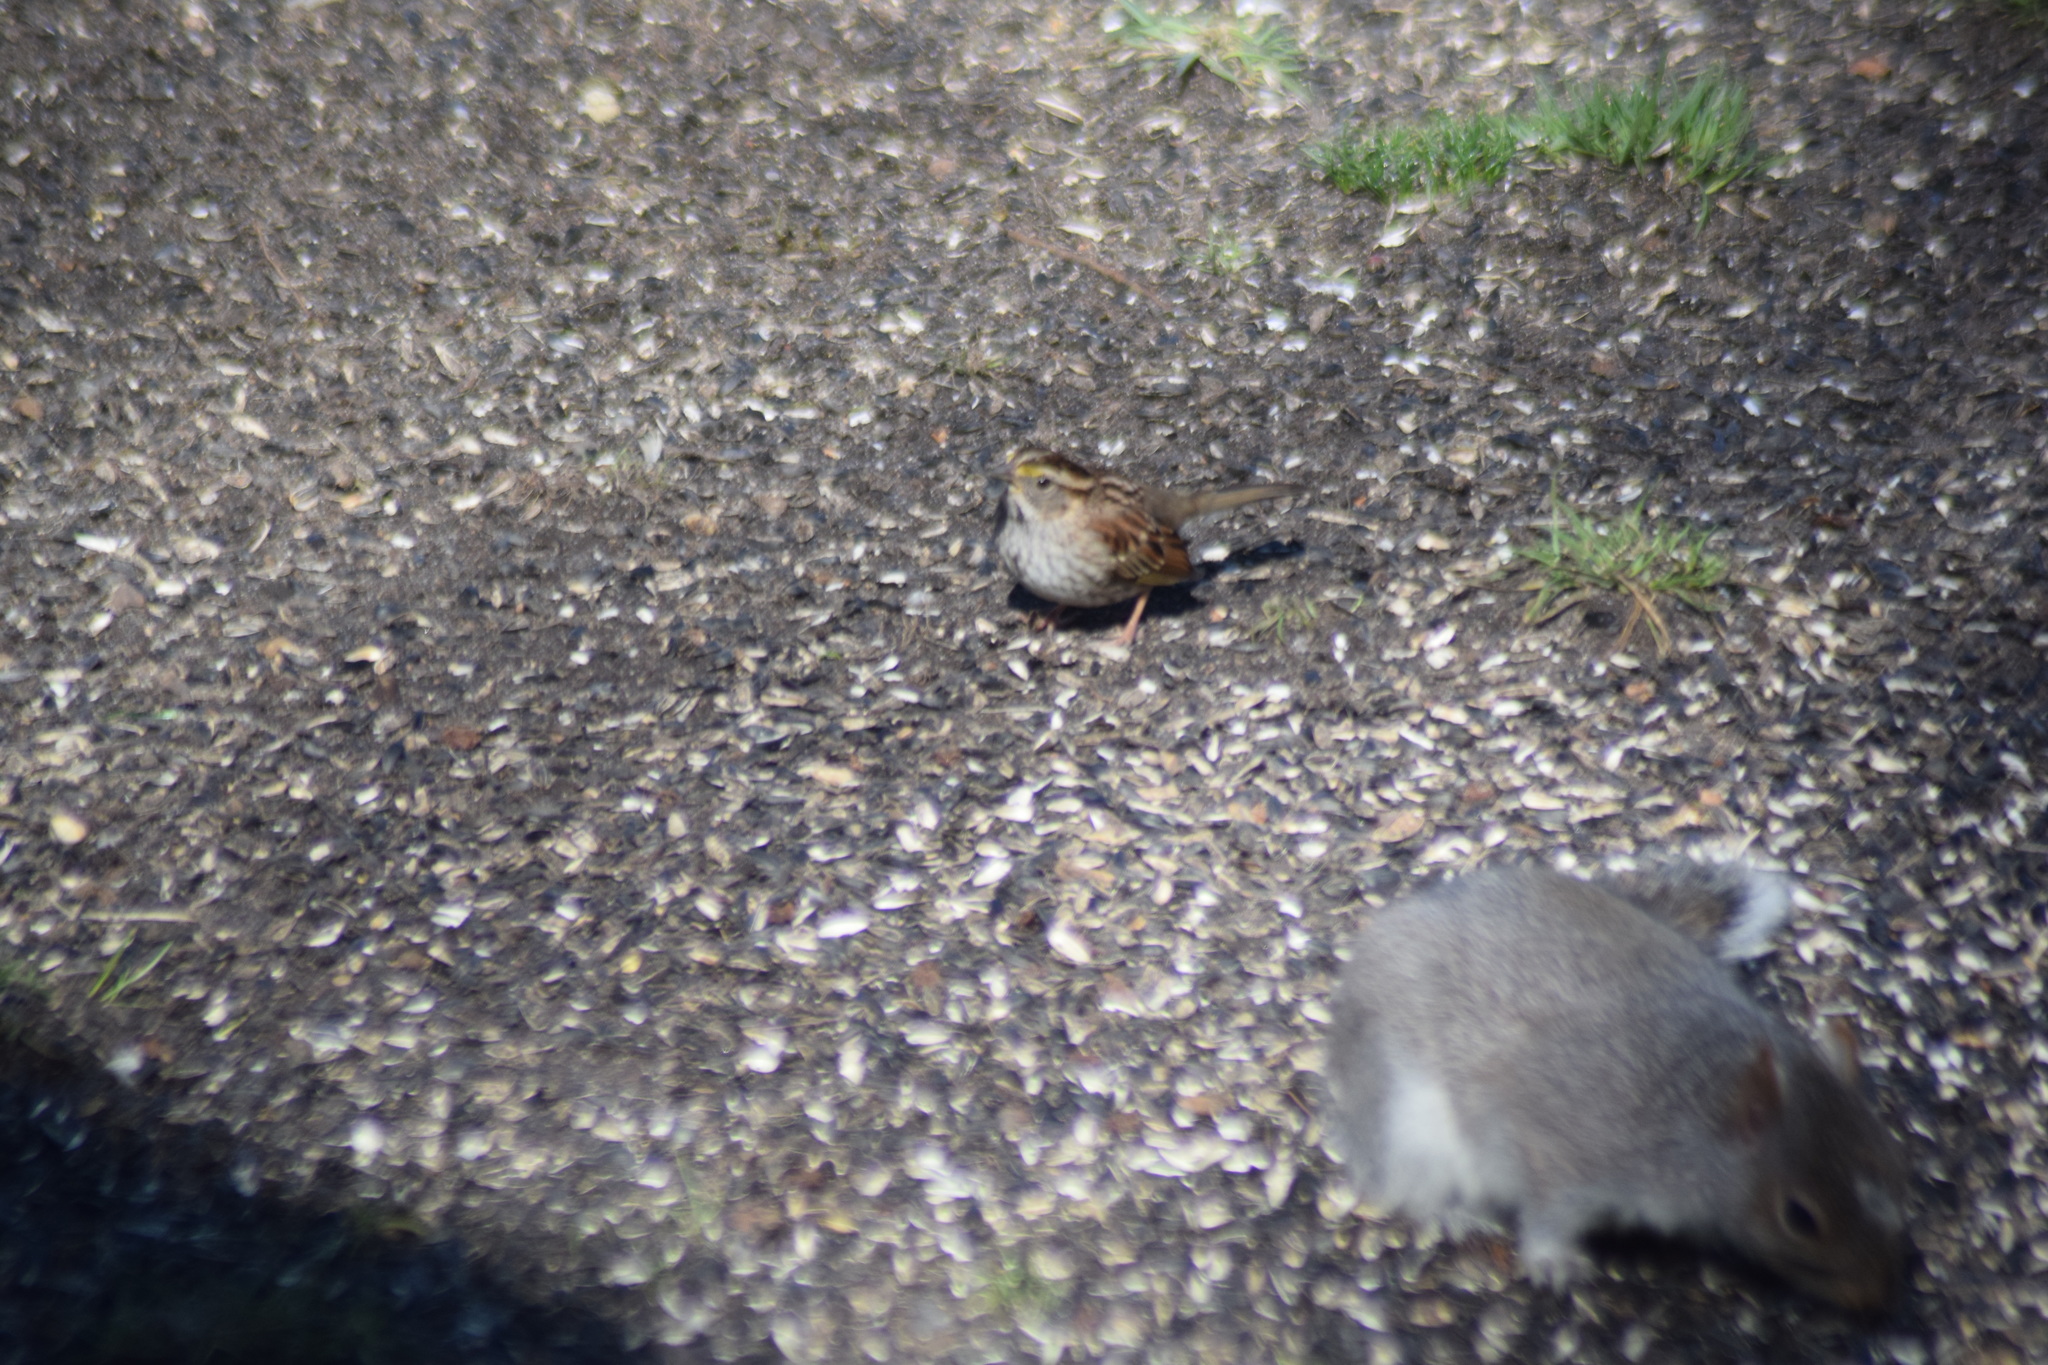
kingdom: Animalia
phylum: Chordata
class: Aves
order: Passeriformes
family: Passerellidae
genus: Zonotrichia
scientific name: Zonotrichia albicollis
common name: White-throated sparrow
